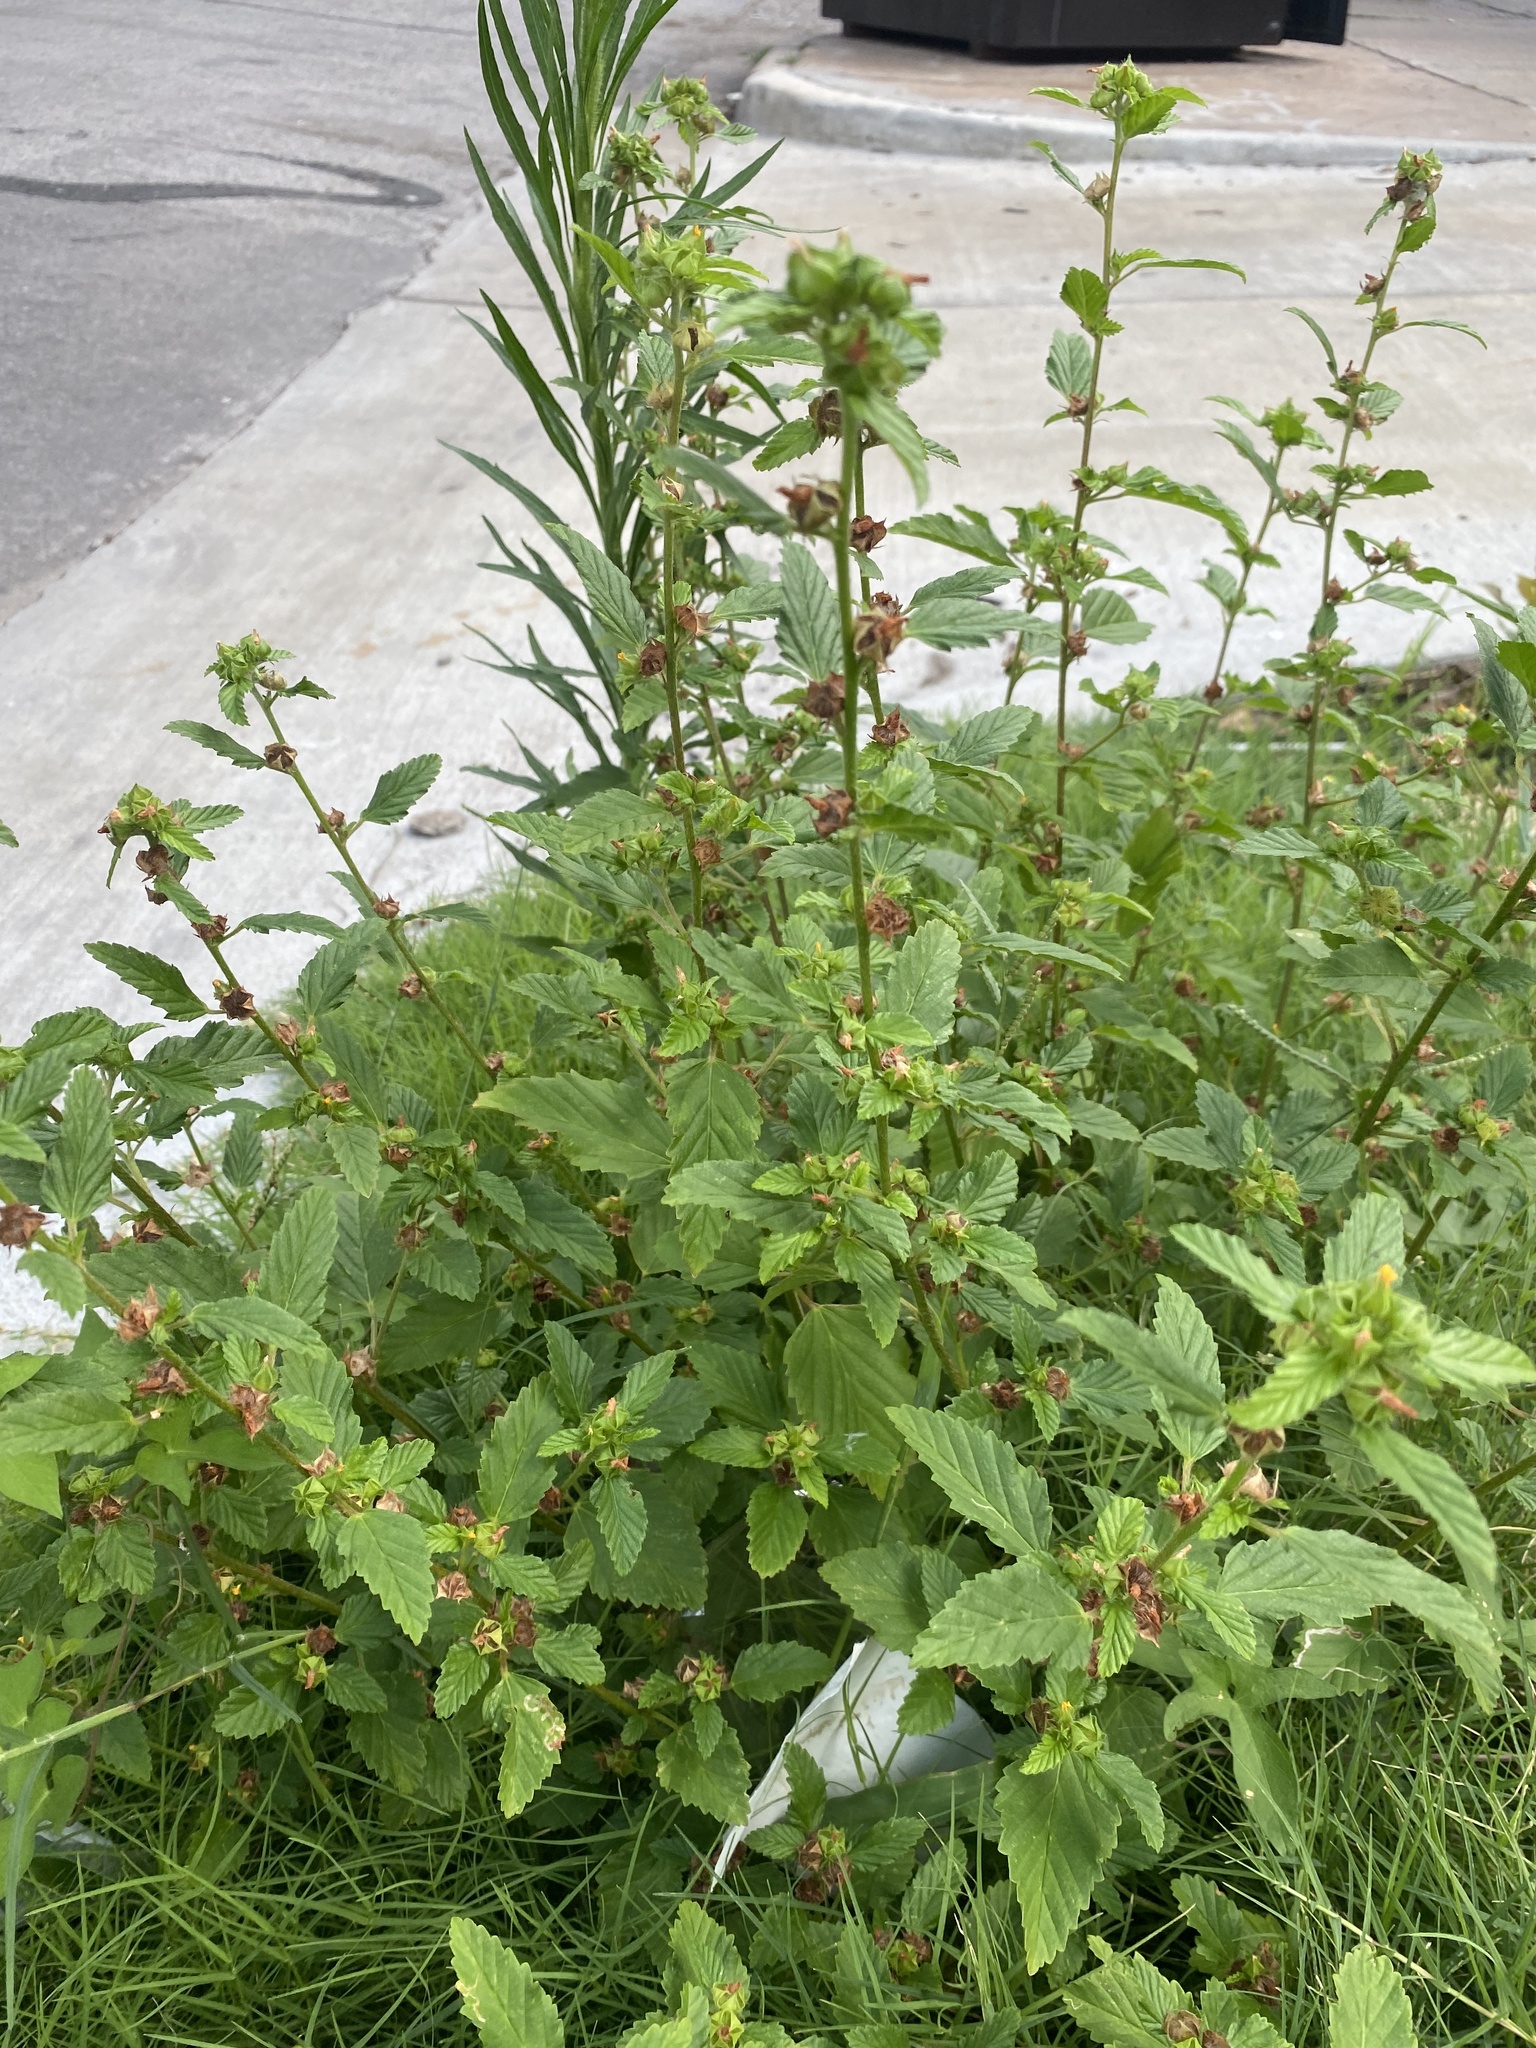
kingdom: Plantae
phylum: Tracheophyta
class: Magnoliopsida
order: Malvales
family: Malvaceae
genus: Malvastrum
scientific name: Malvastrum coromandelianum
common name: Threelobe false mallow
